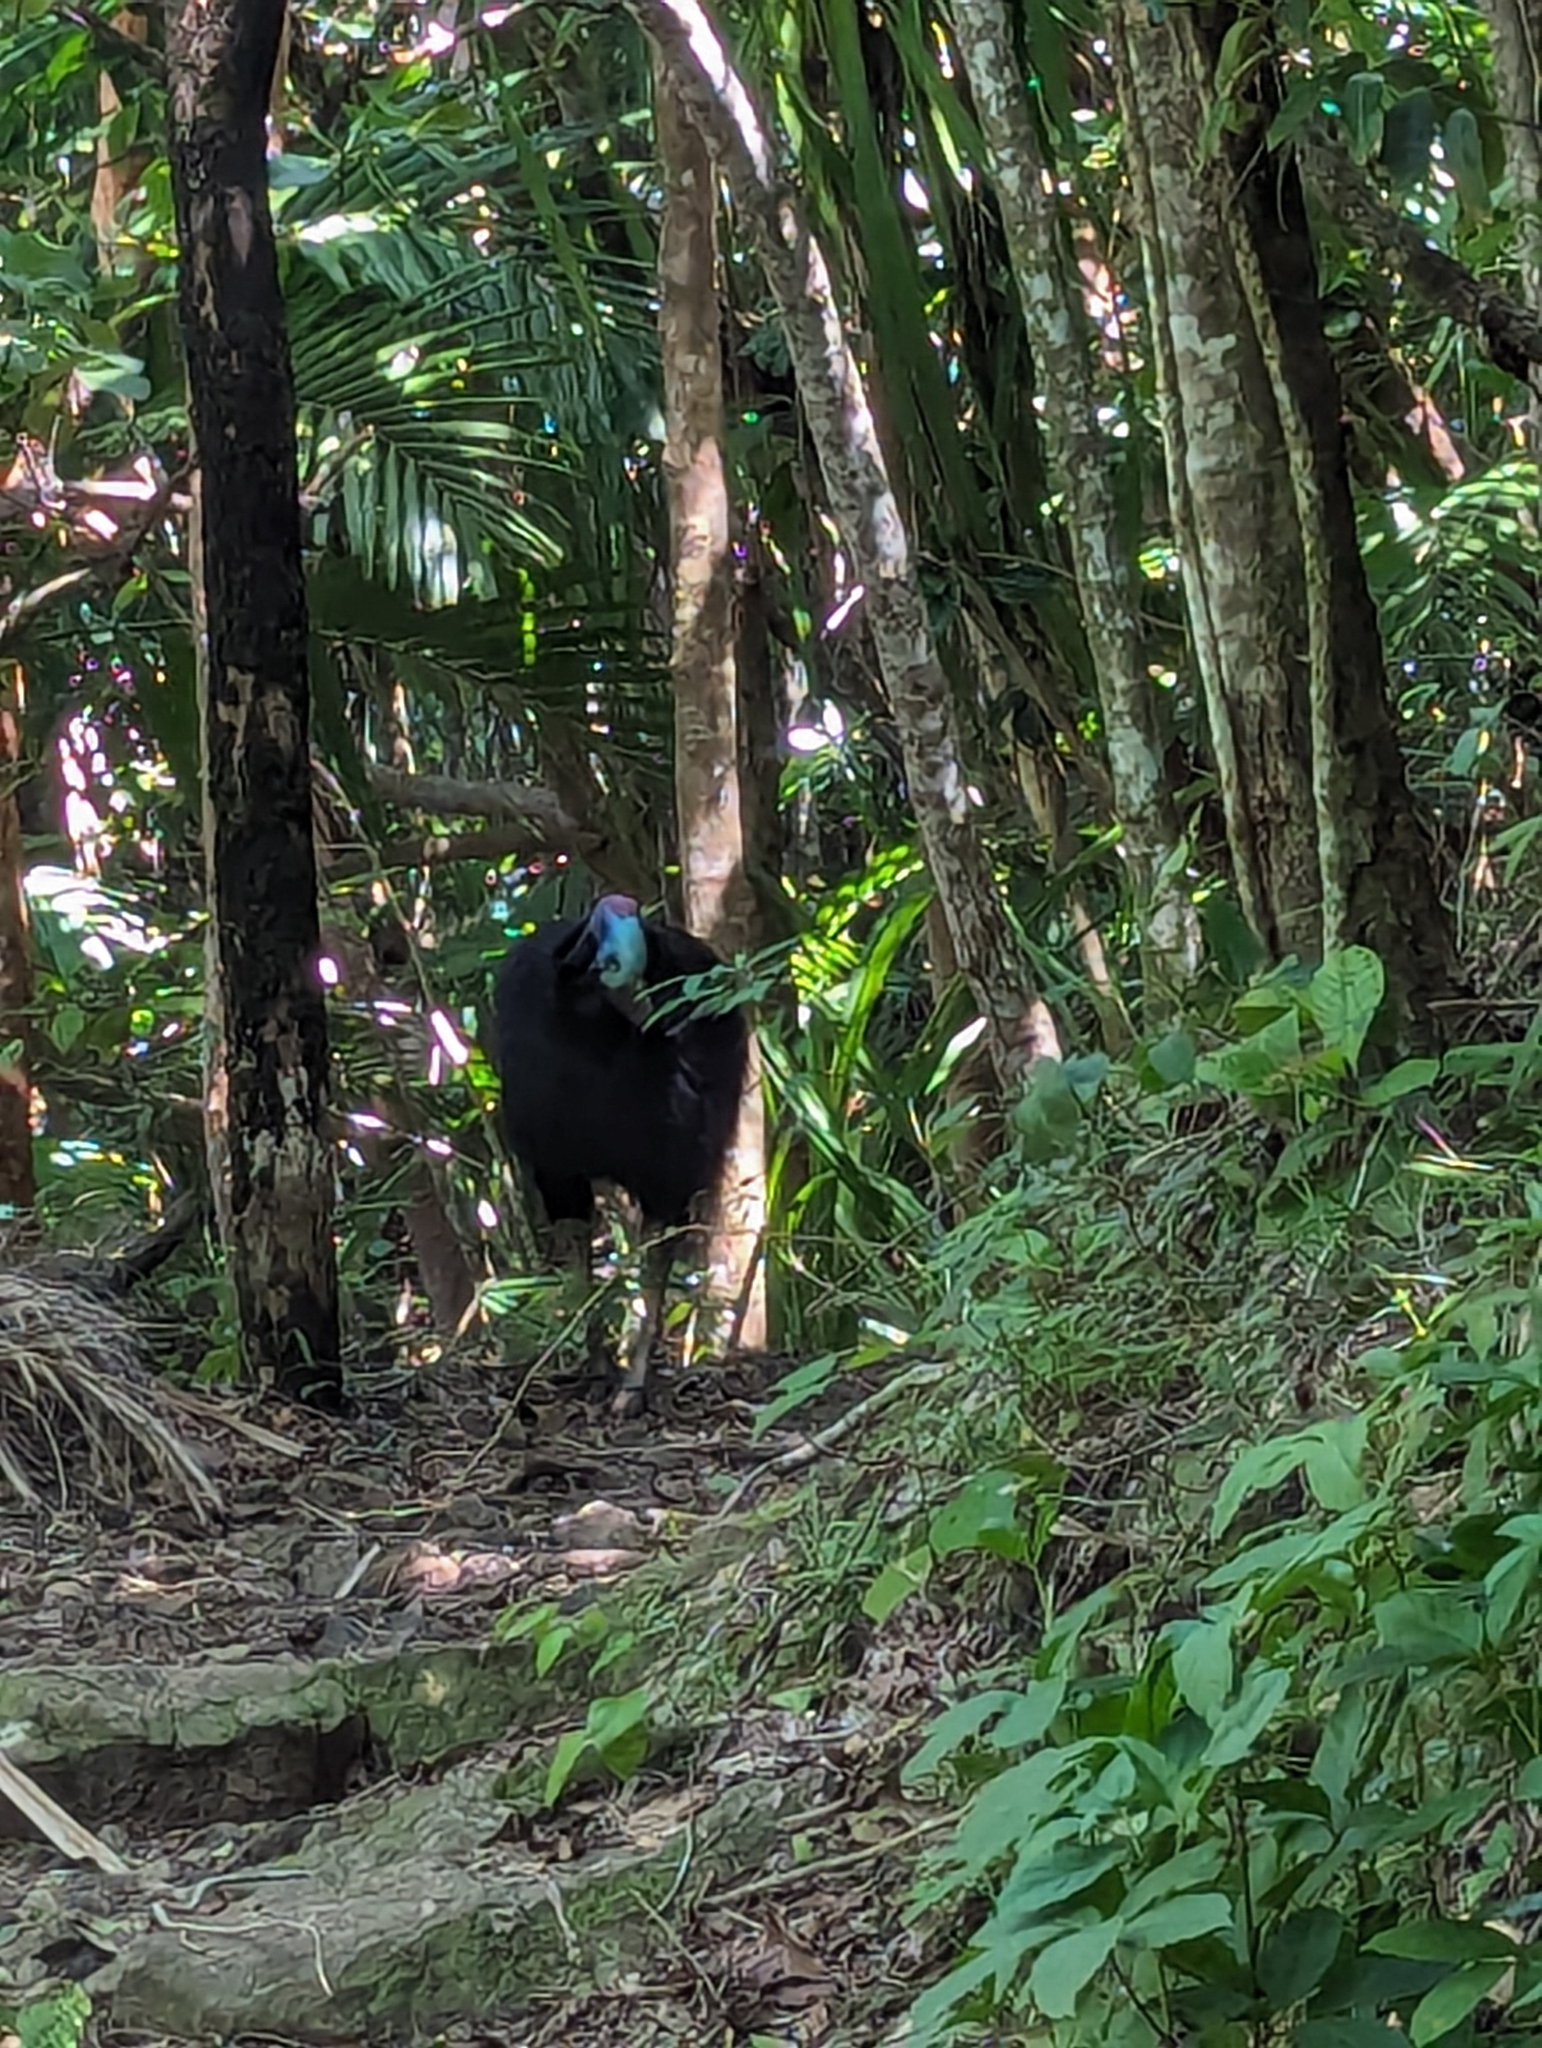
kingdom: Animalia
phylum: Chordata
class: Aves
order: Casuariiformes
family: Casuariidae
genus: Casuarius
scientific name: Casuarius casuarius
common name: Southern cassowary
